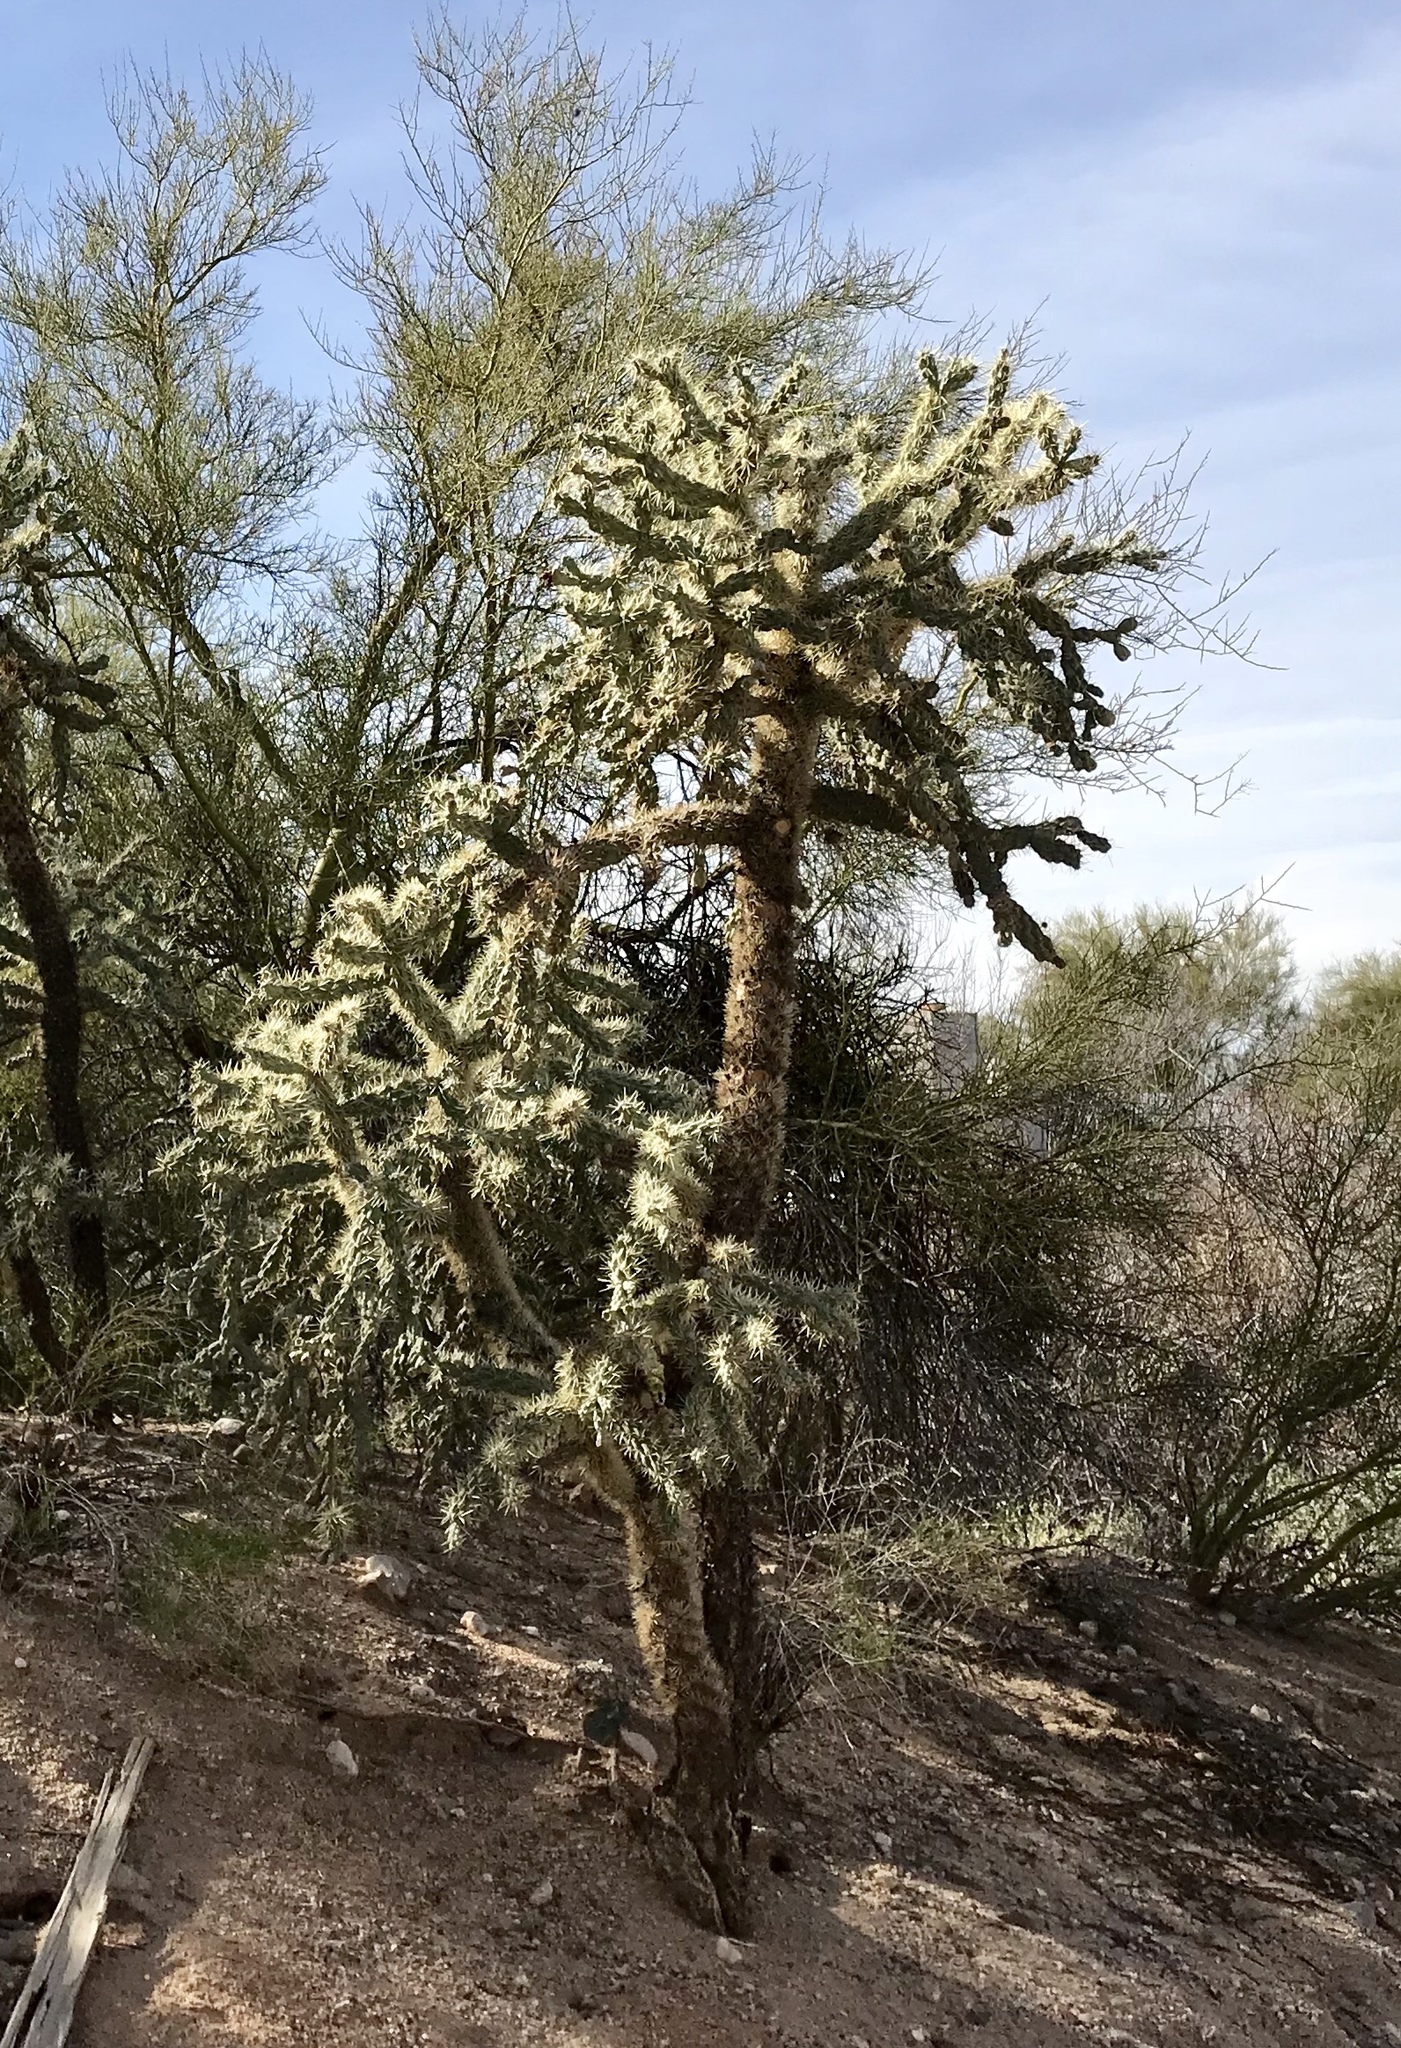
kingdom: Plantae
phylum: Tracheophyta
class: Magnoliopsida
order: Caryophyllales
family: Cactaceae
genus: Cylindropuntia
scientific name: Cylindropuntia fulgida
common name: Jumping cholla
